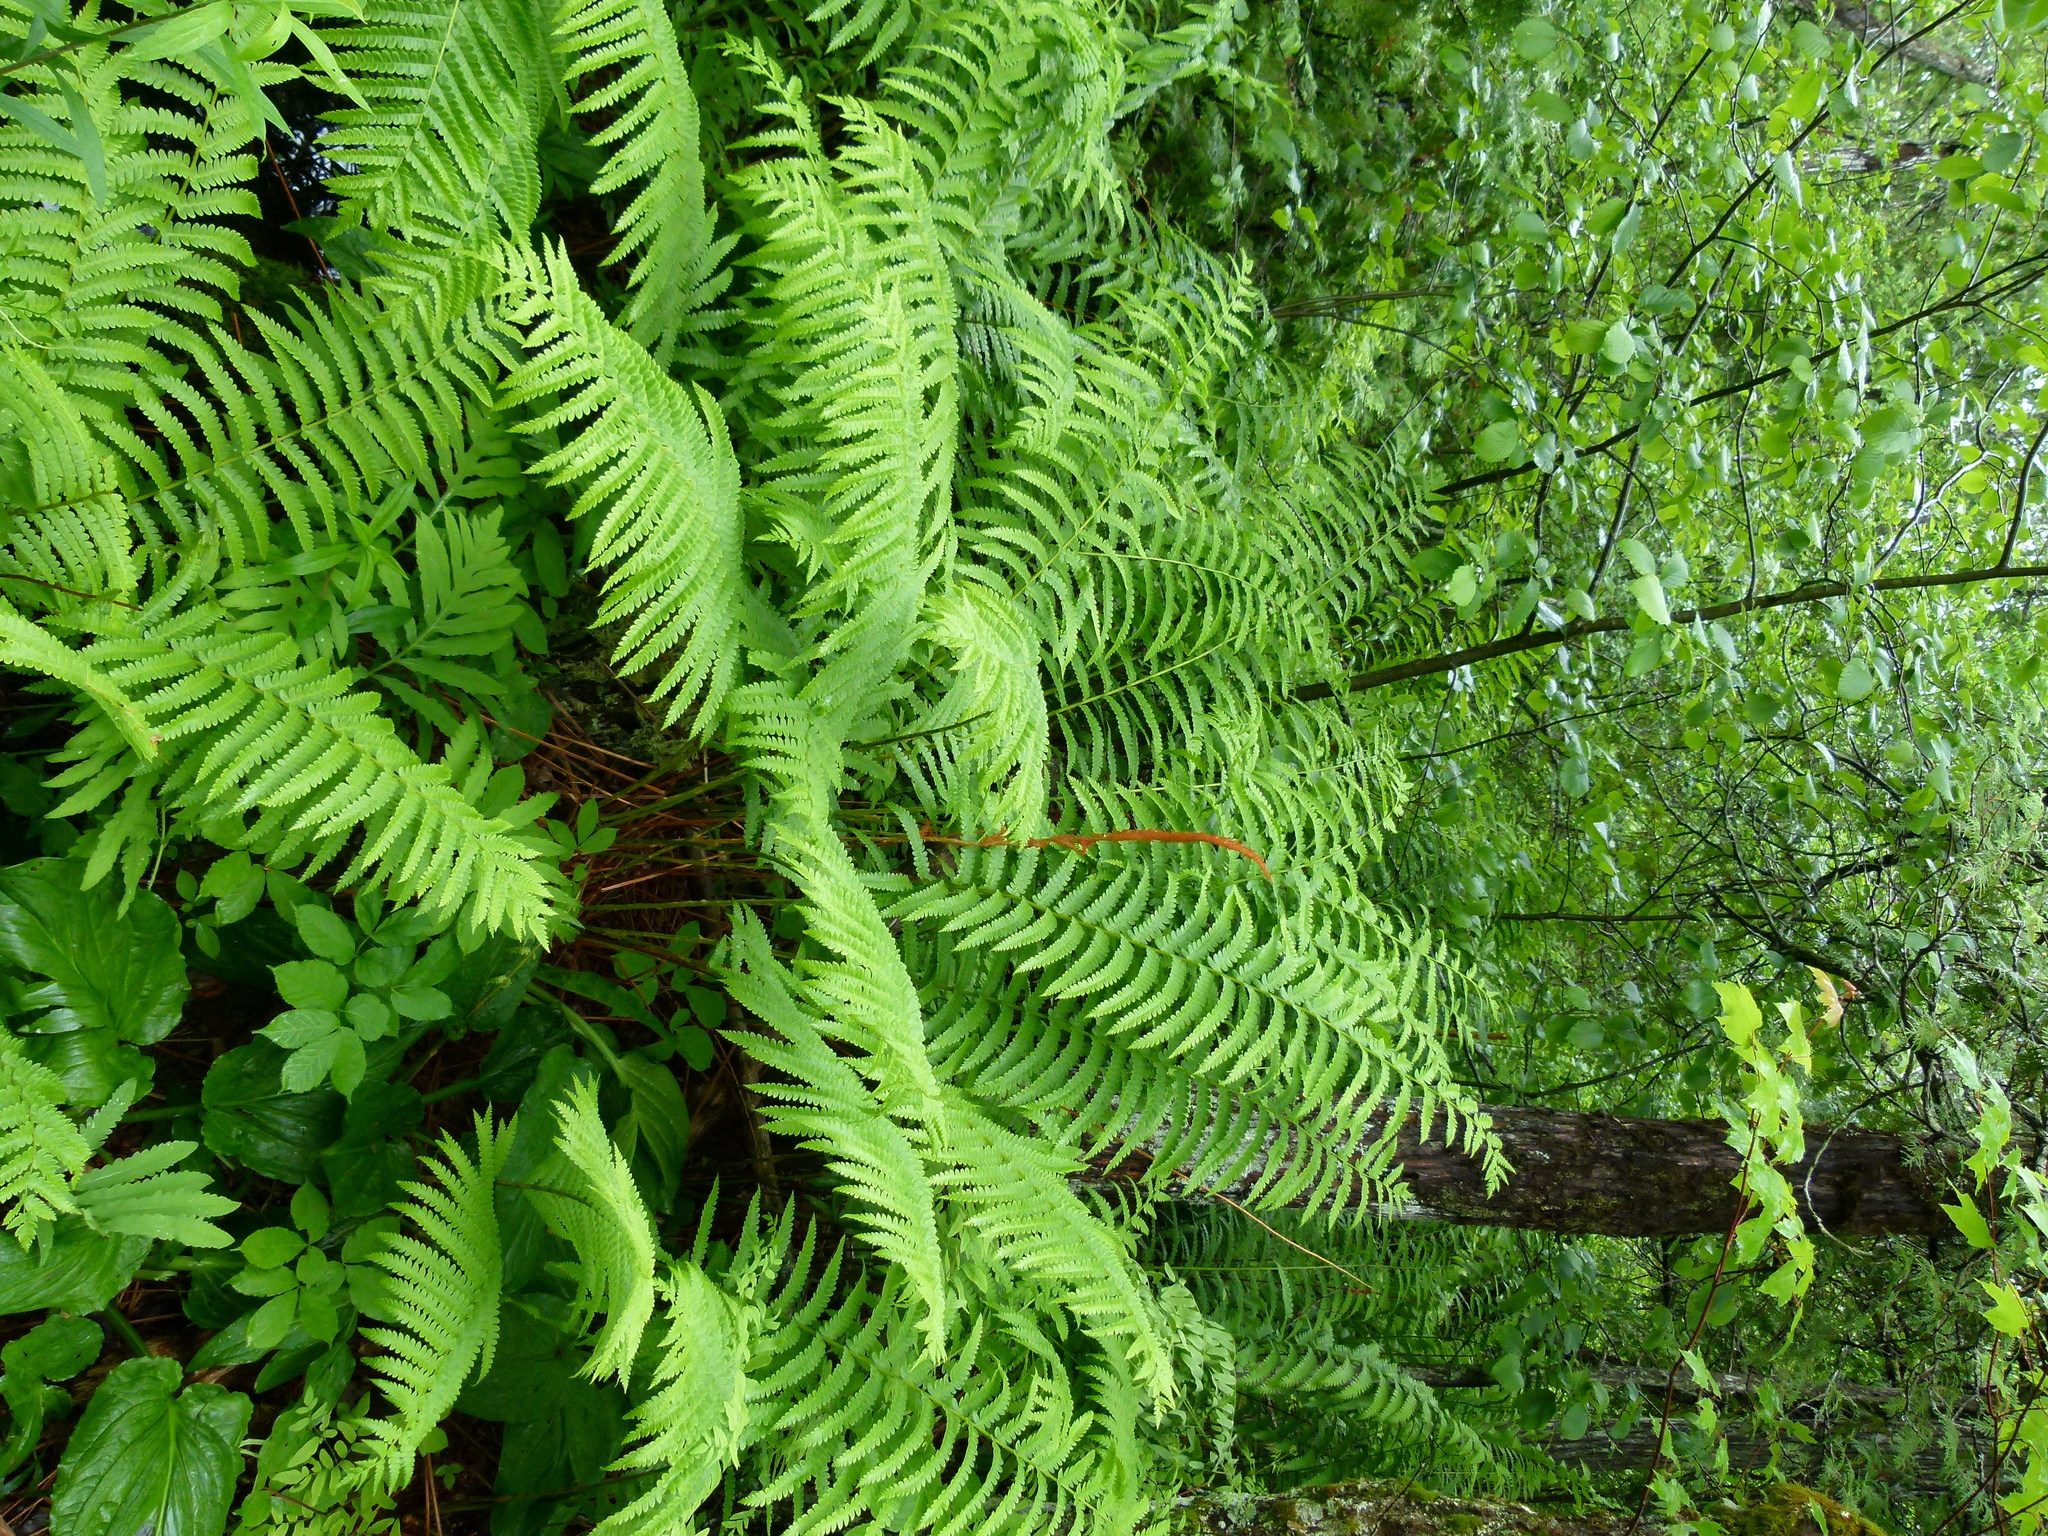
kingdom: Plantae
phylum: Tracheophyta
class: Polypodiopsida
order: Osmundales
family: Osmundaceae
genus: Osmundastrum
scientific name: Osmundastrum cinnamomeum
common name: Cinnamon fern
